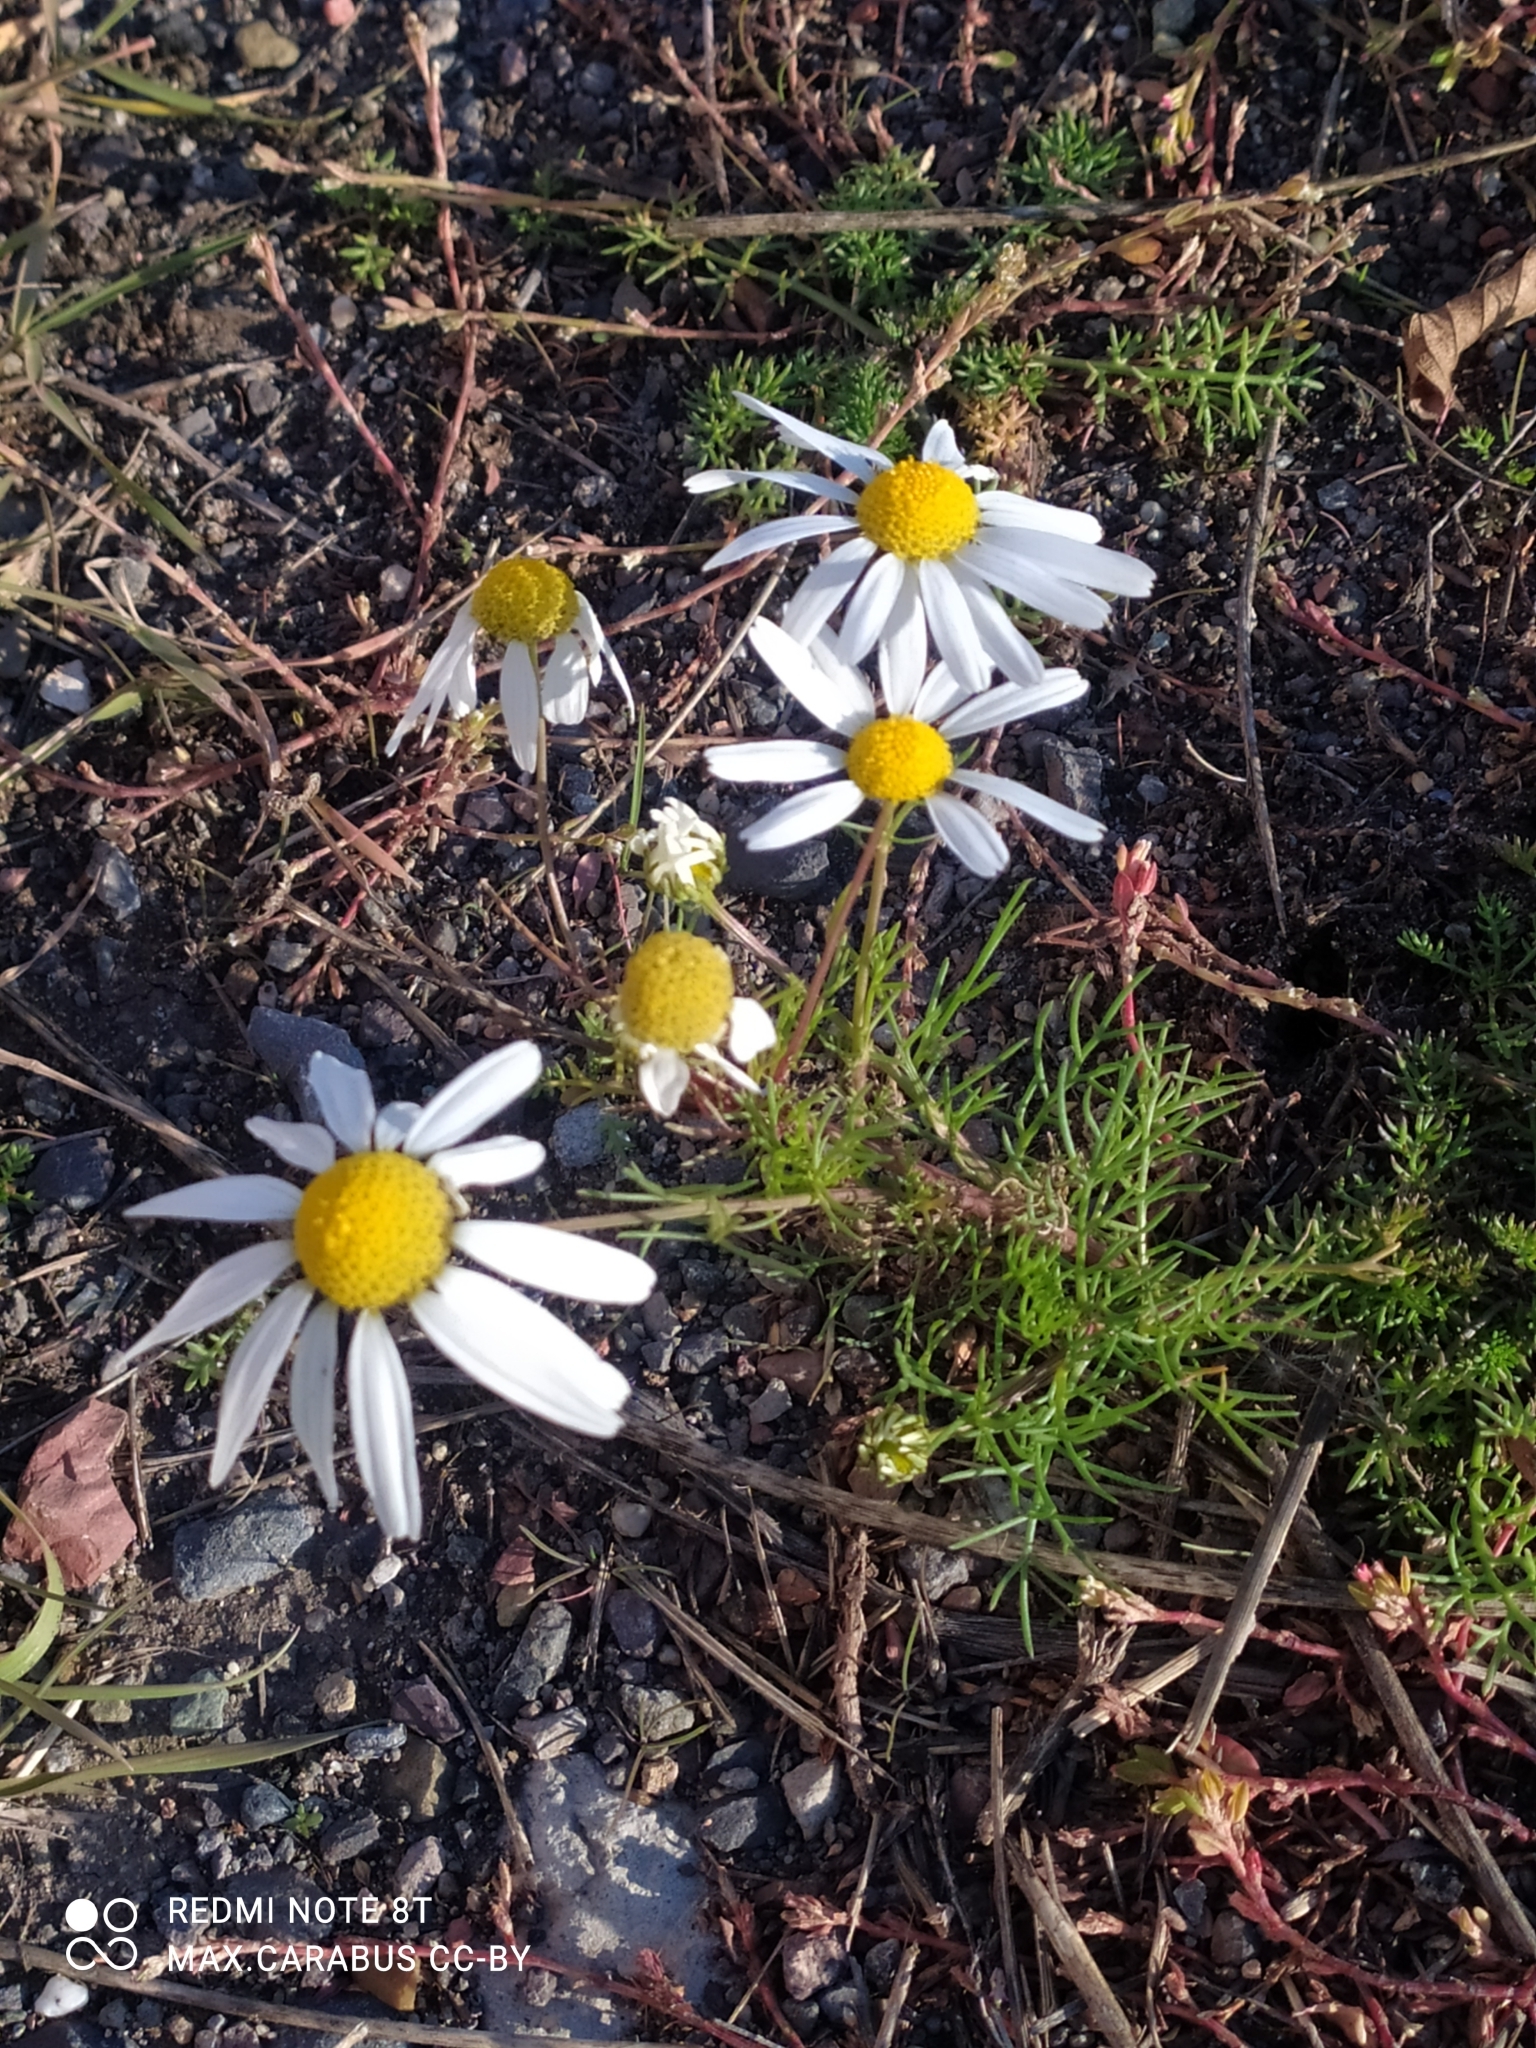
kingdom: Plantae
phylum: Tracheophyta
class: Magnoliopsida
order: Asterales
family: Asteraceae
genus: Tripleurospermum
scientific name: Tripleurospermum inodorum
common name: Scentless mayweed
